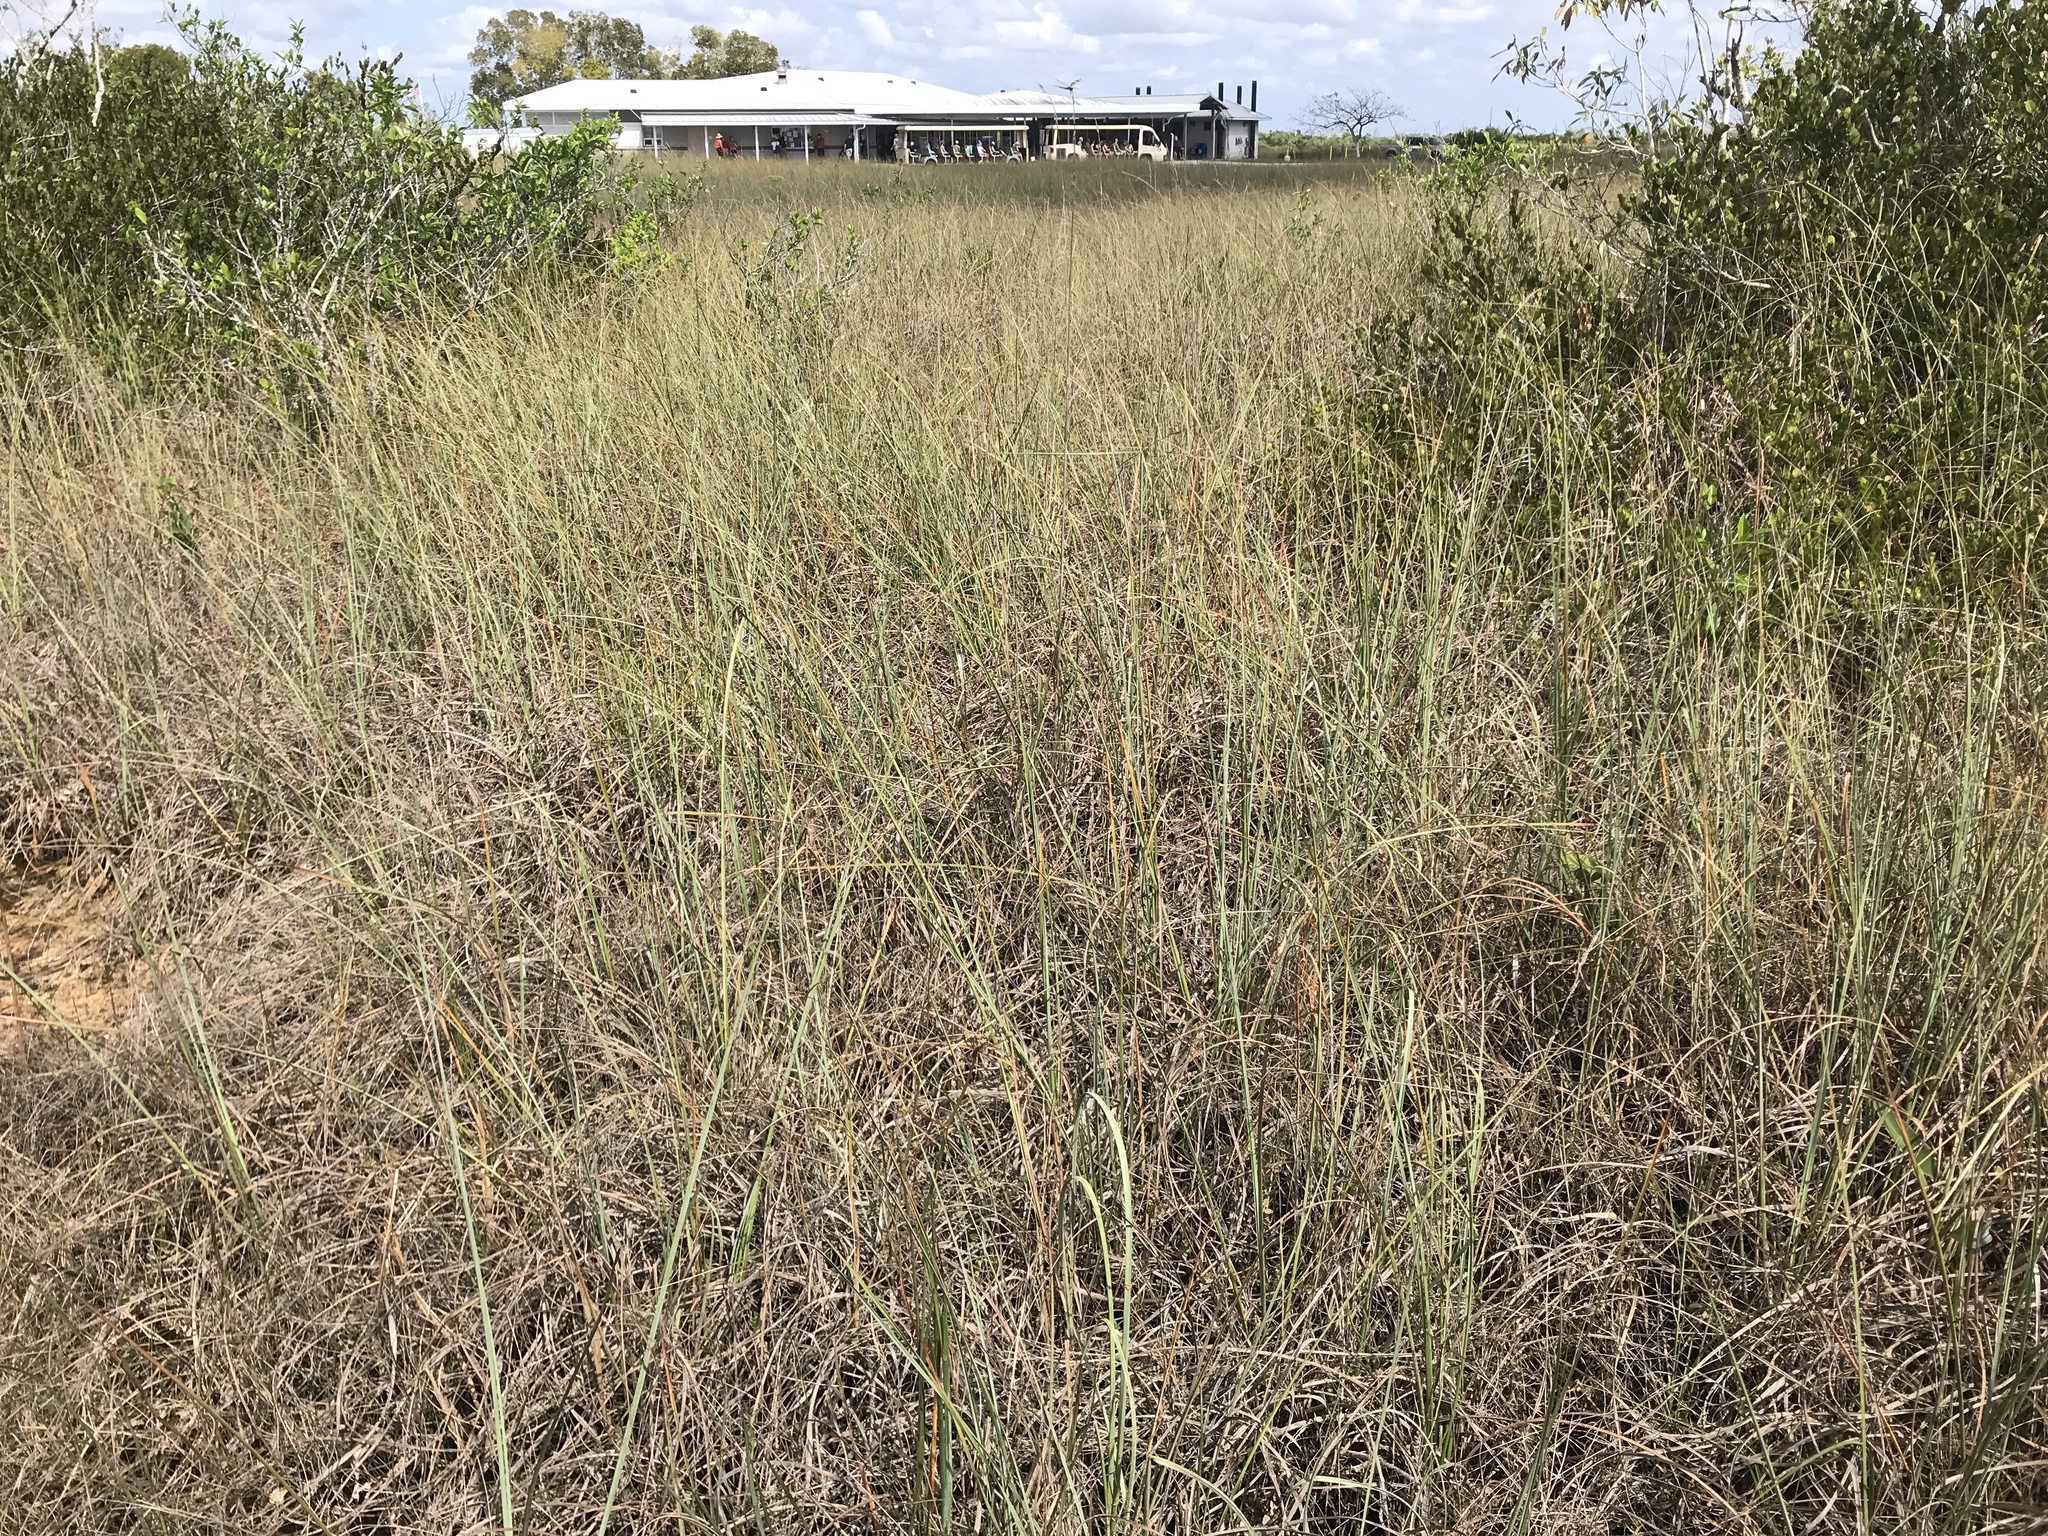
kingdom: Plantae
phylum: Tracheophyta
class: Liliopsida
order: Poales
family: Cyperaceae
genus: Cladium
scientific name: Cladium mariscus
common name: Great fen-sedge
